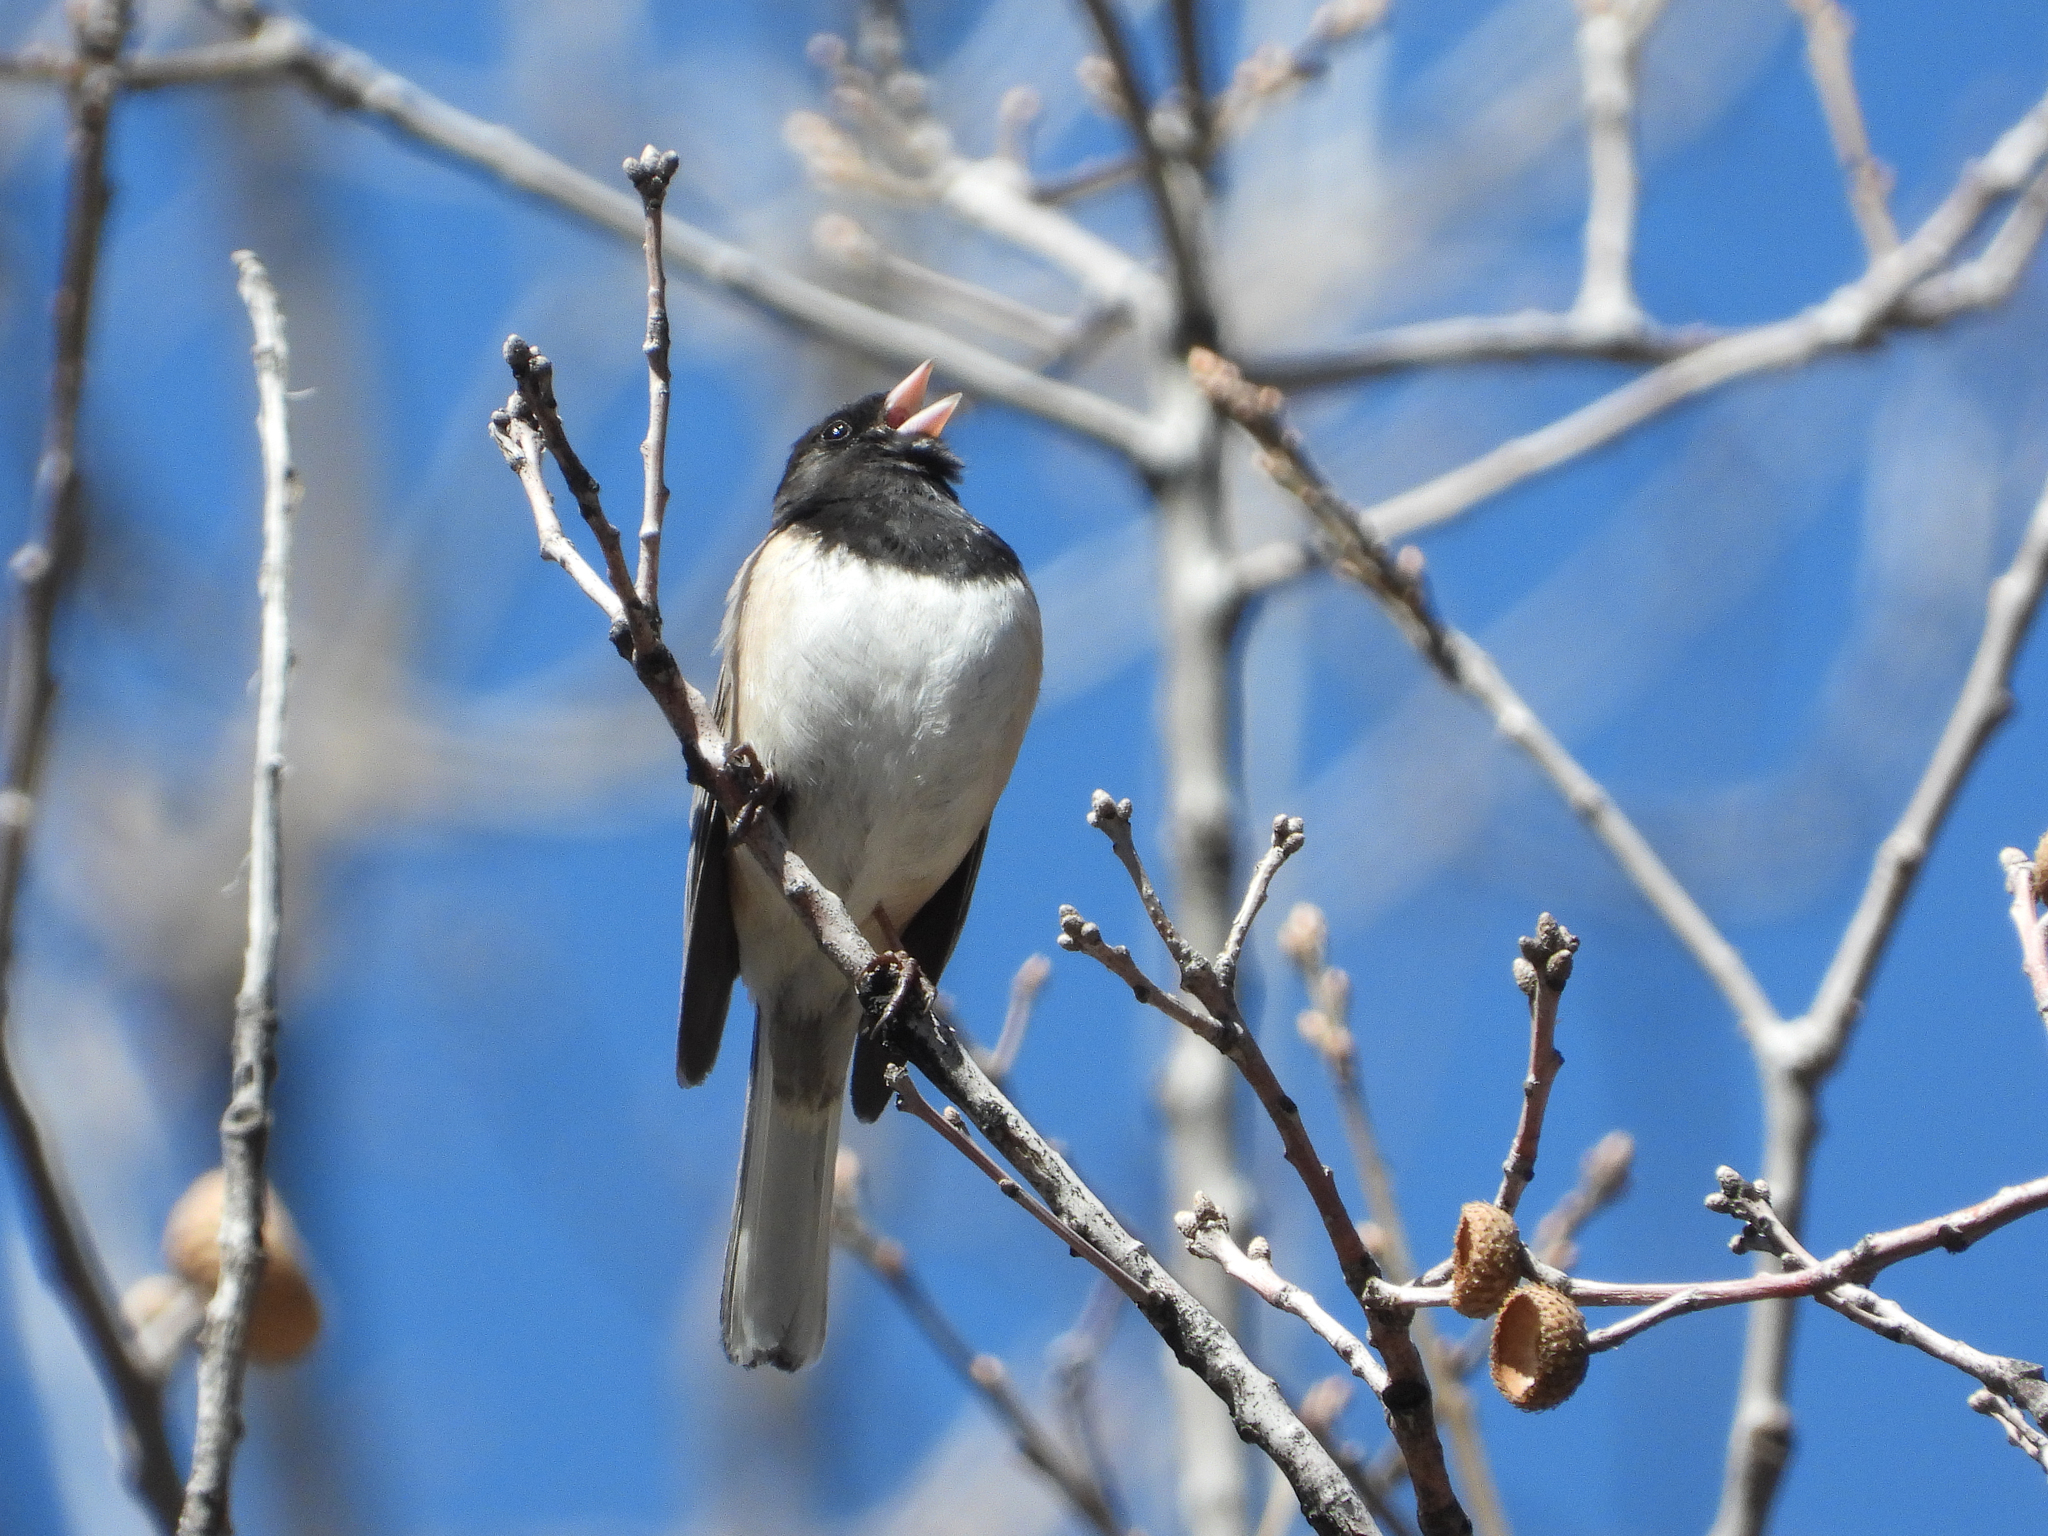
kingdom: Animalia
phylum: Chordata
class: Aves
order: Passeriformes
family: Passerellidae
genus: Junco
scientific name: Junco hyemalis
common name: Dark-eyed junco
